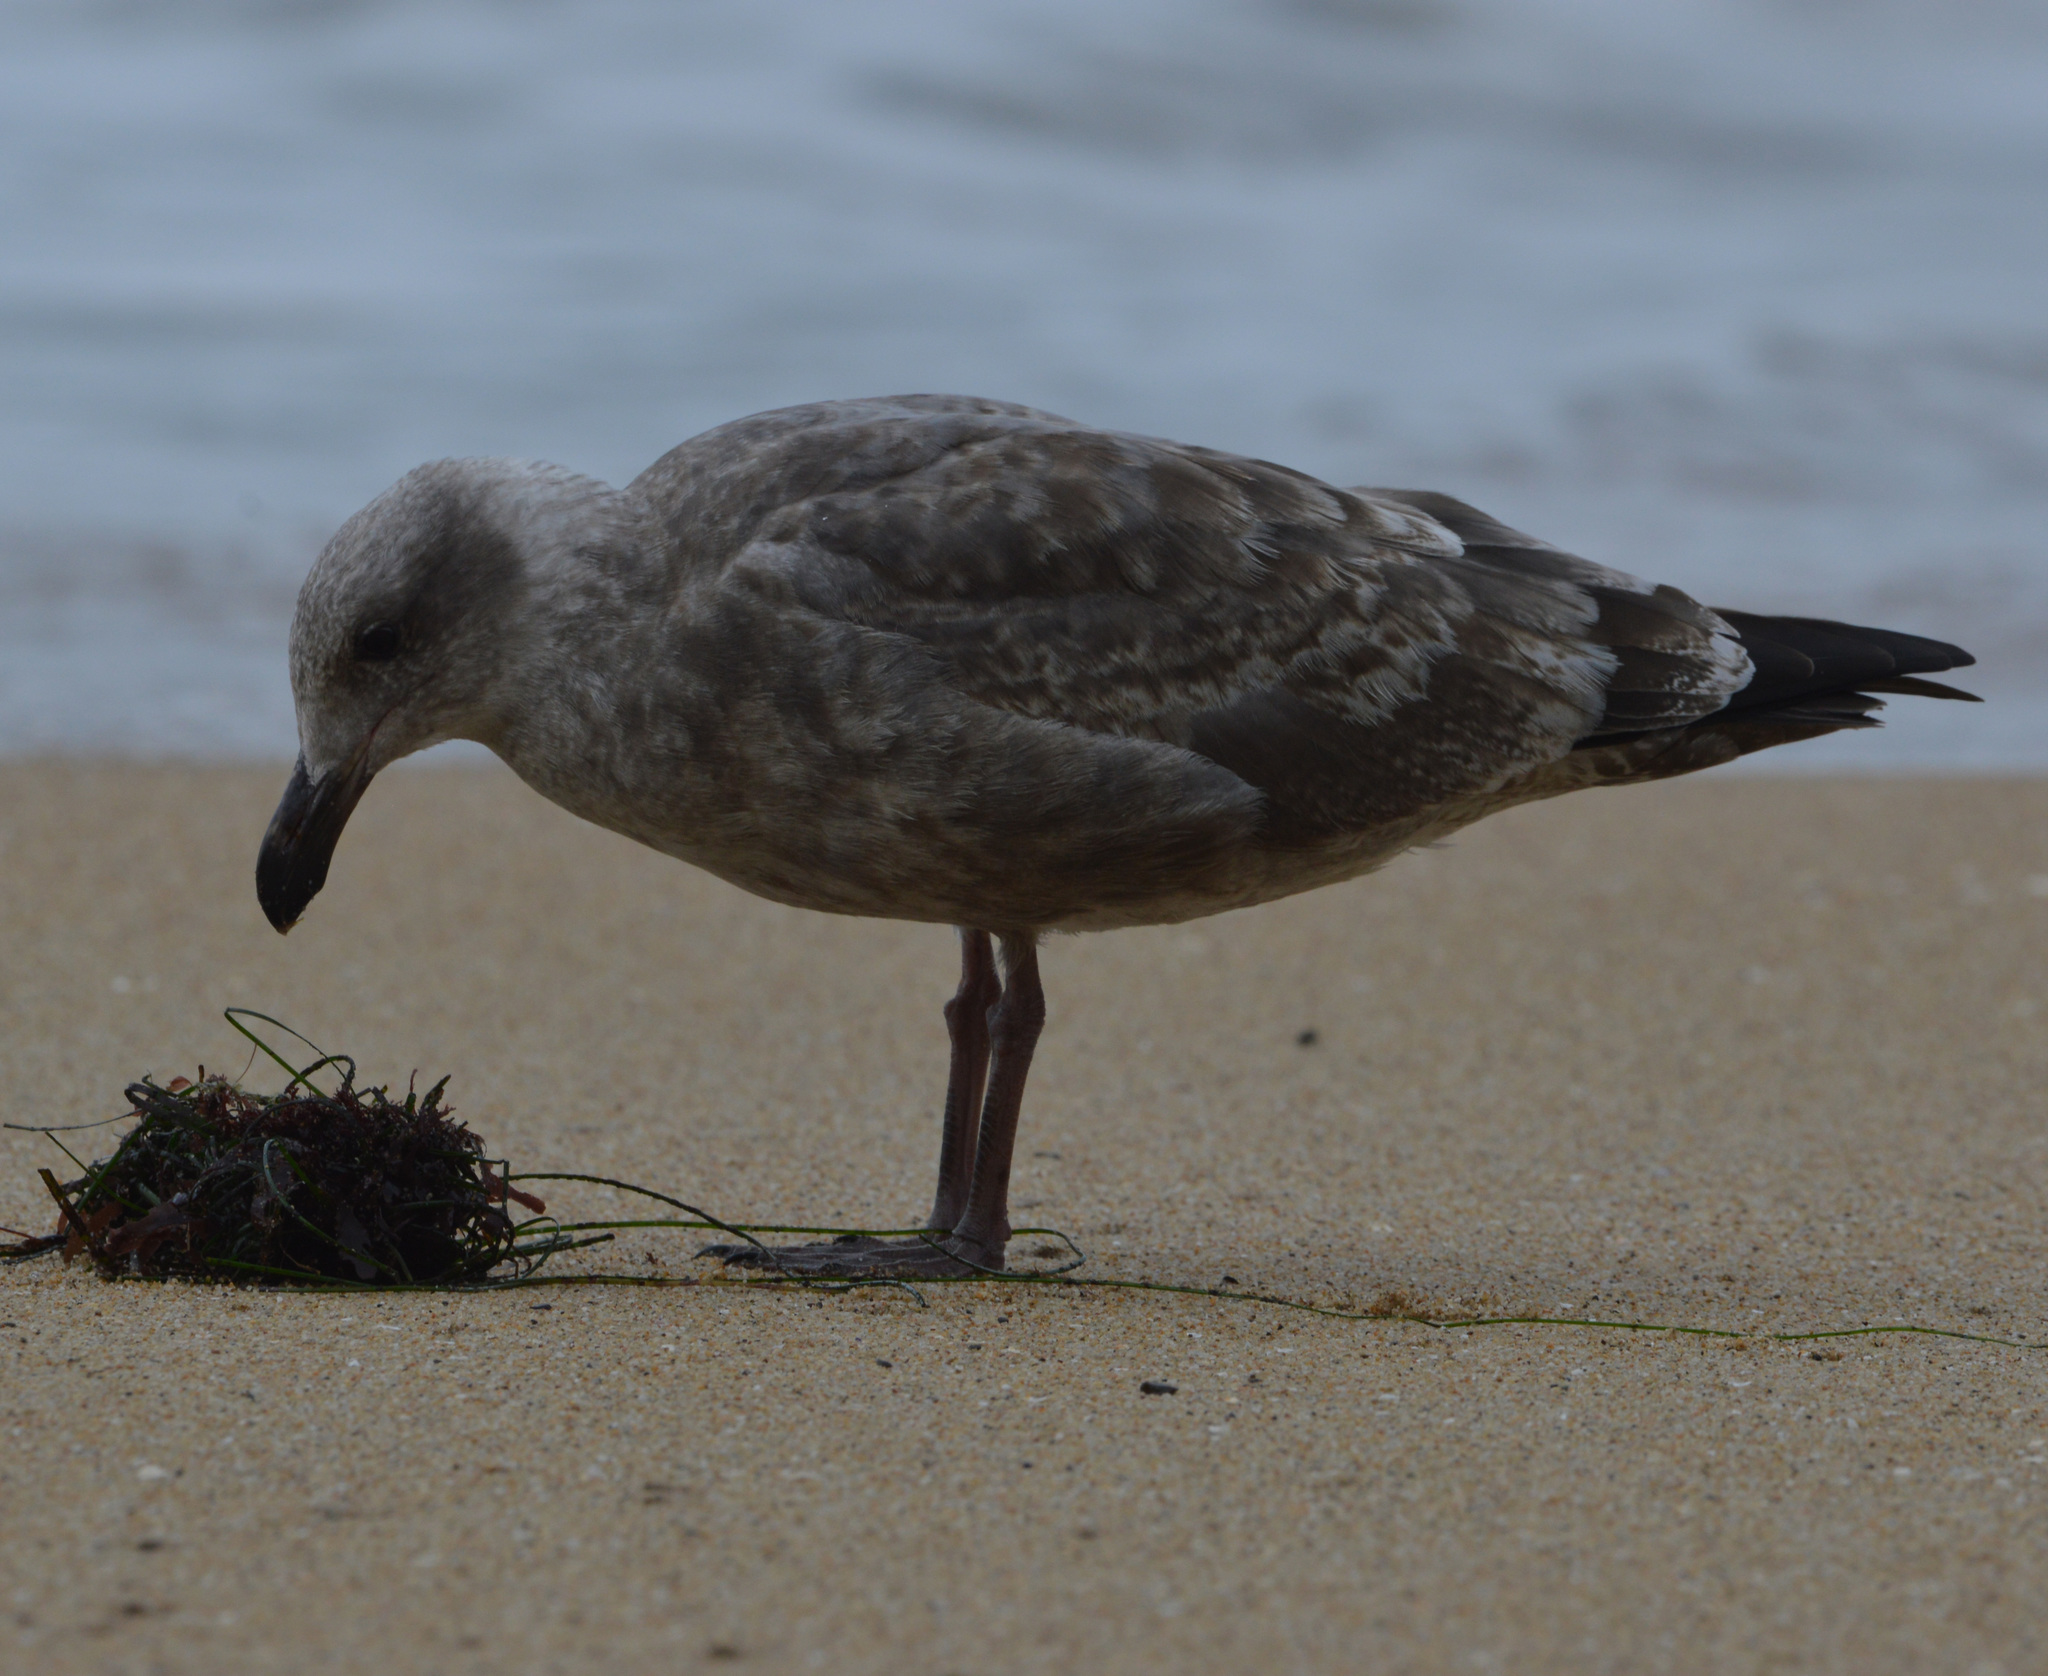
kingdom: Animalia
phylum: Chordata
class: Aves
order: Charadriiformes
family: Laridae
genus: Larus
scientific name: Larus occidentalis
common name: Western gull
